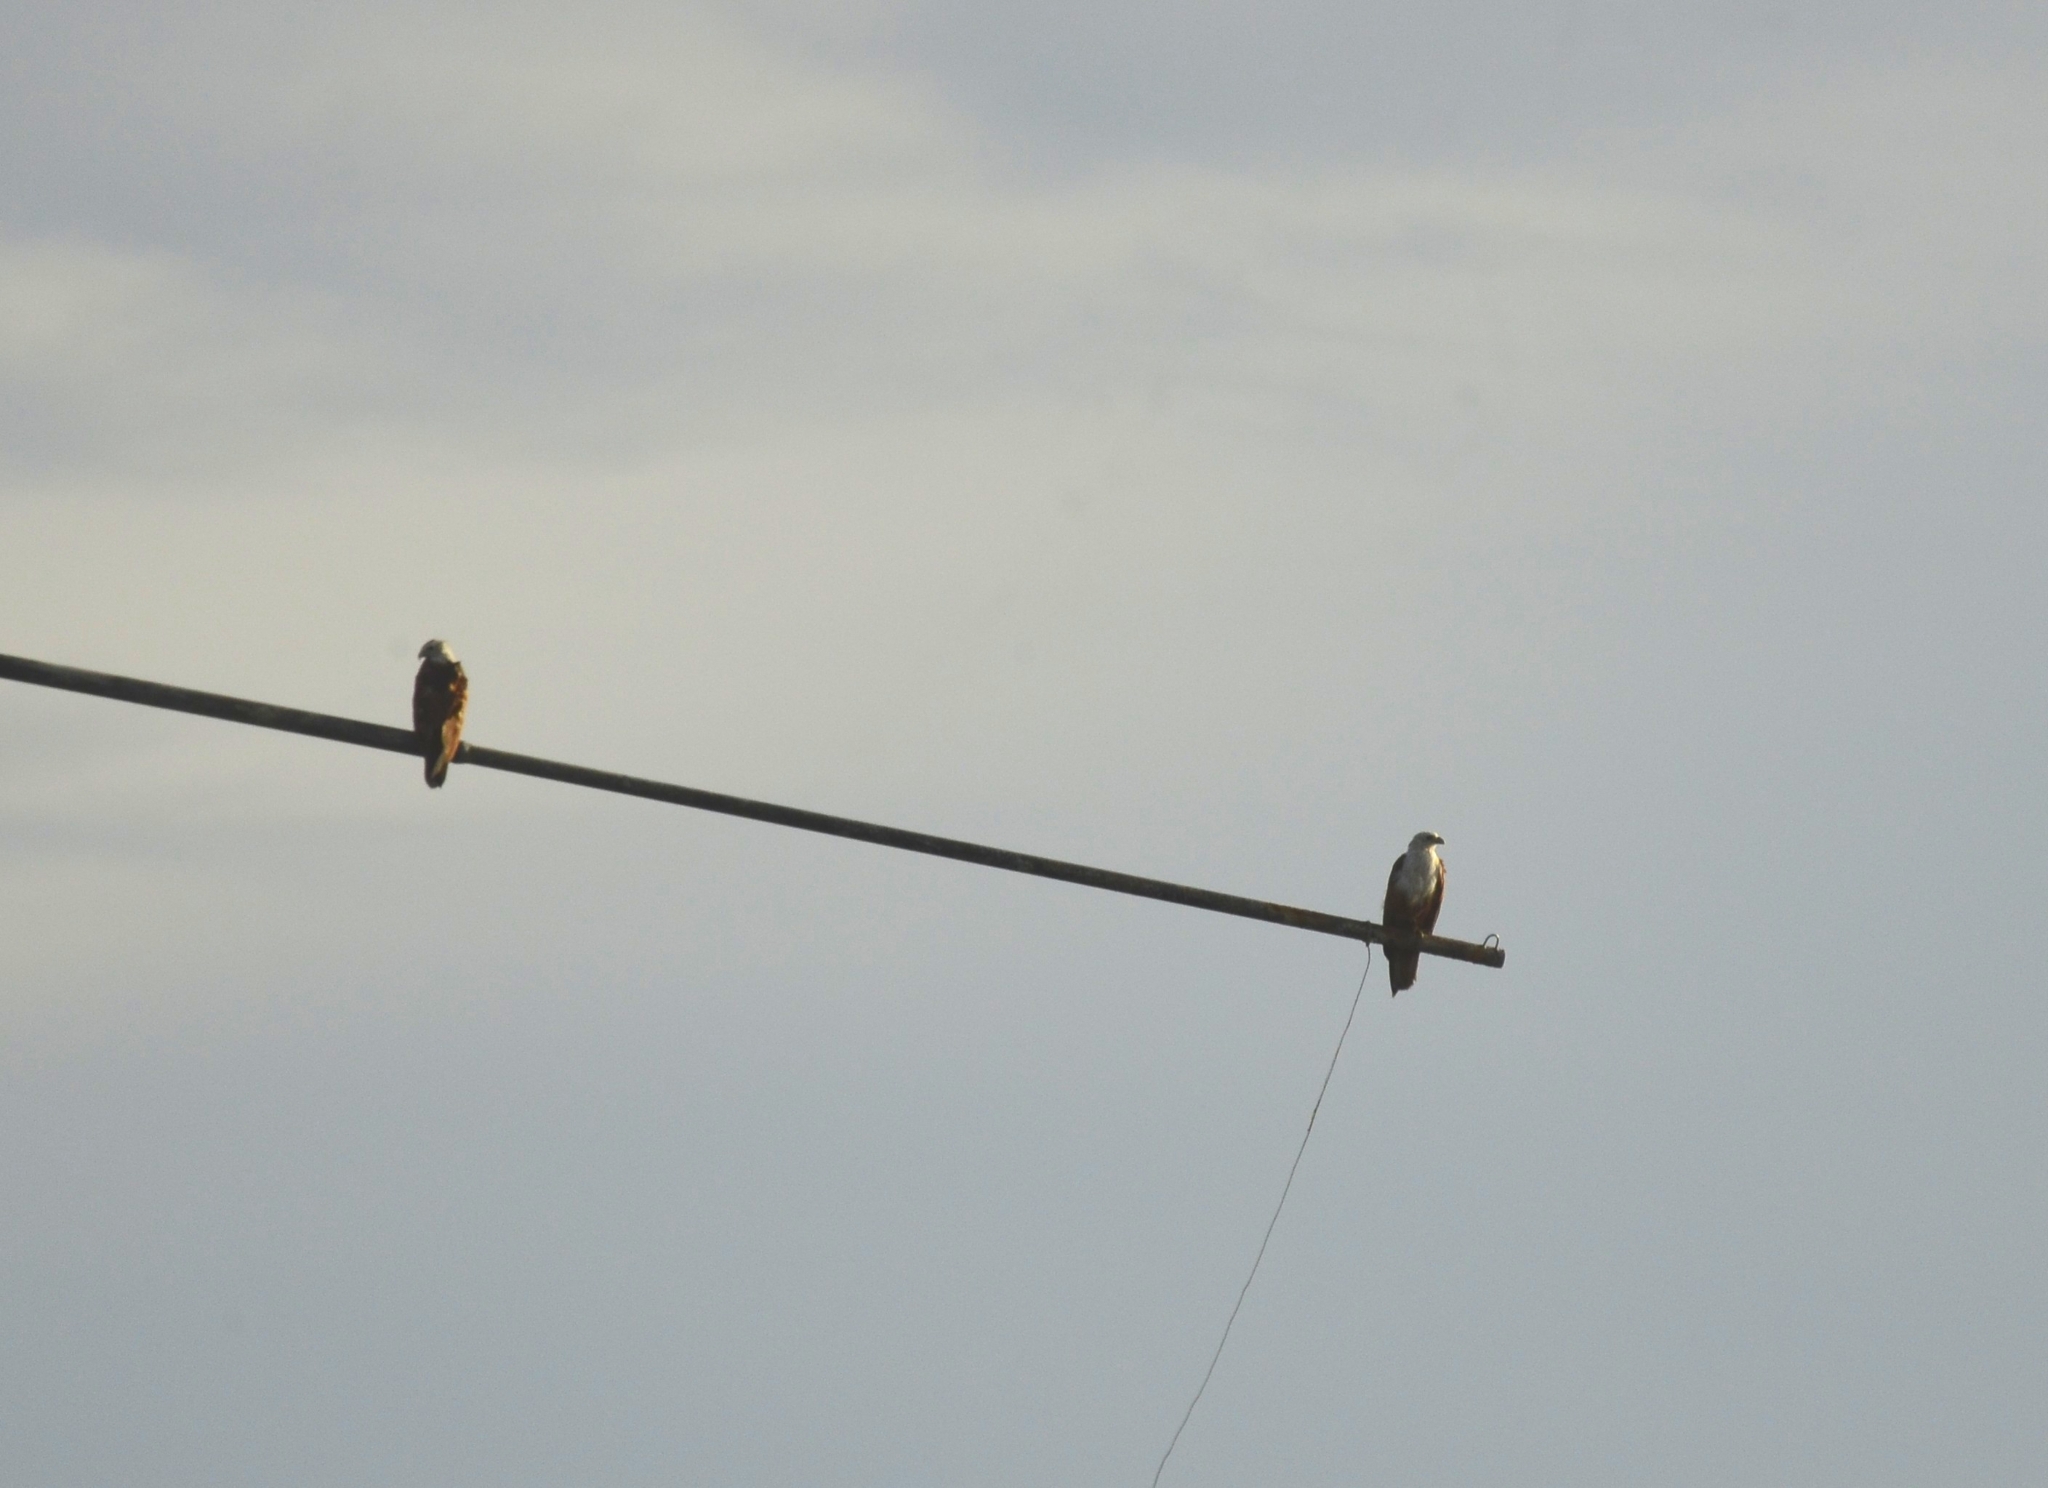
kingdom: Animalia
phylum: Chordata
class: Aves
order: Accipitriformes
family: Accipitridae
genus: Haliastur
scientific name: Haliastur indus
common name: Brahminy kite
